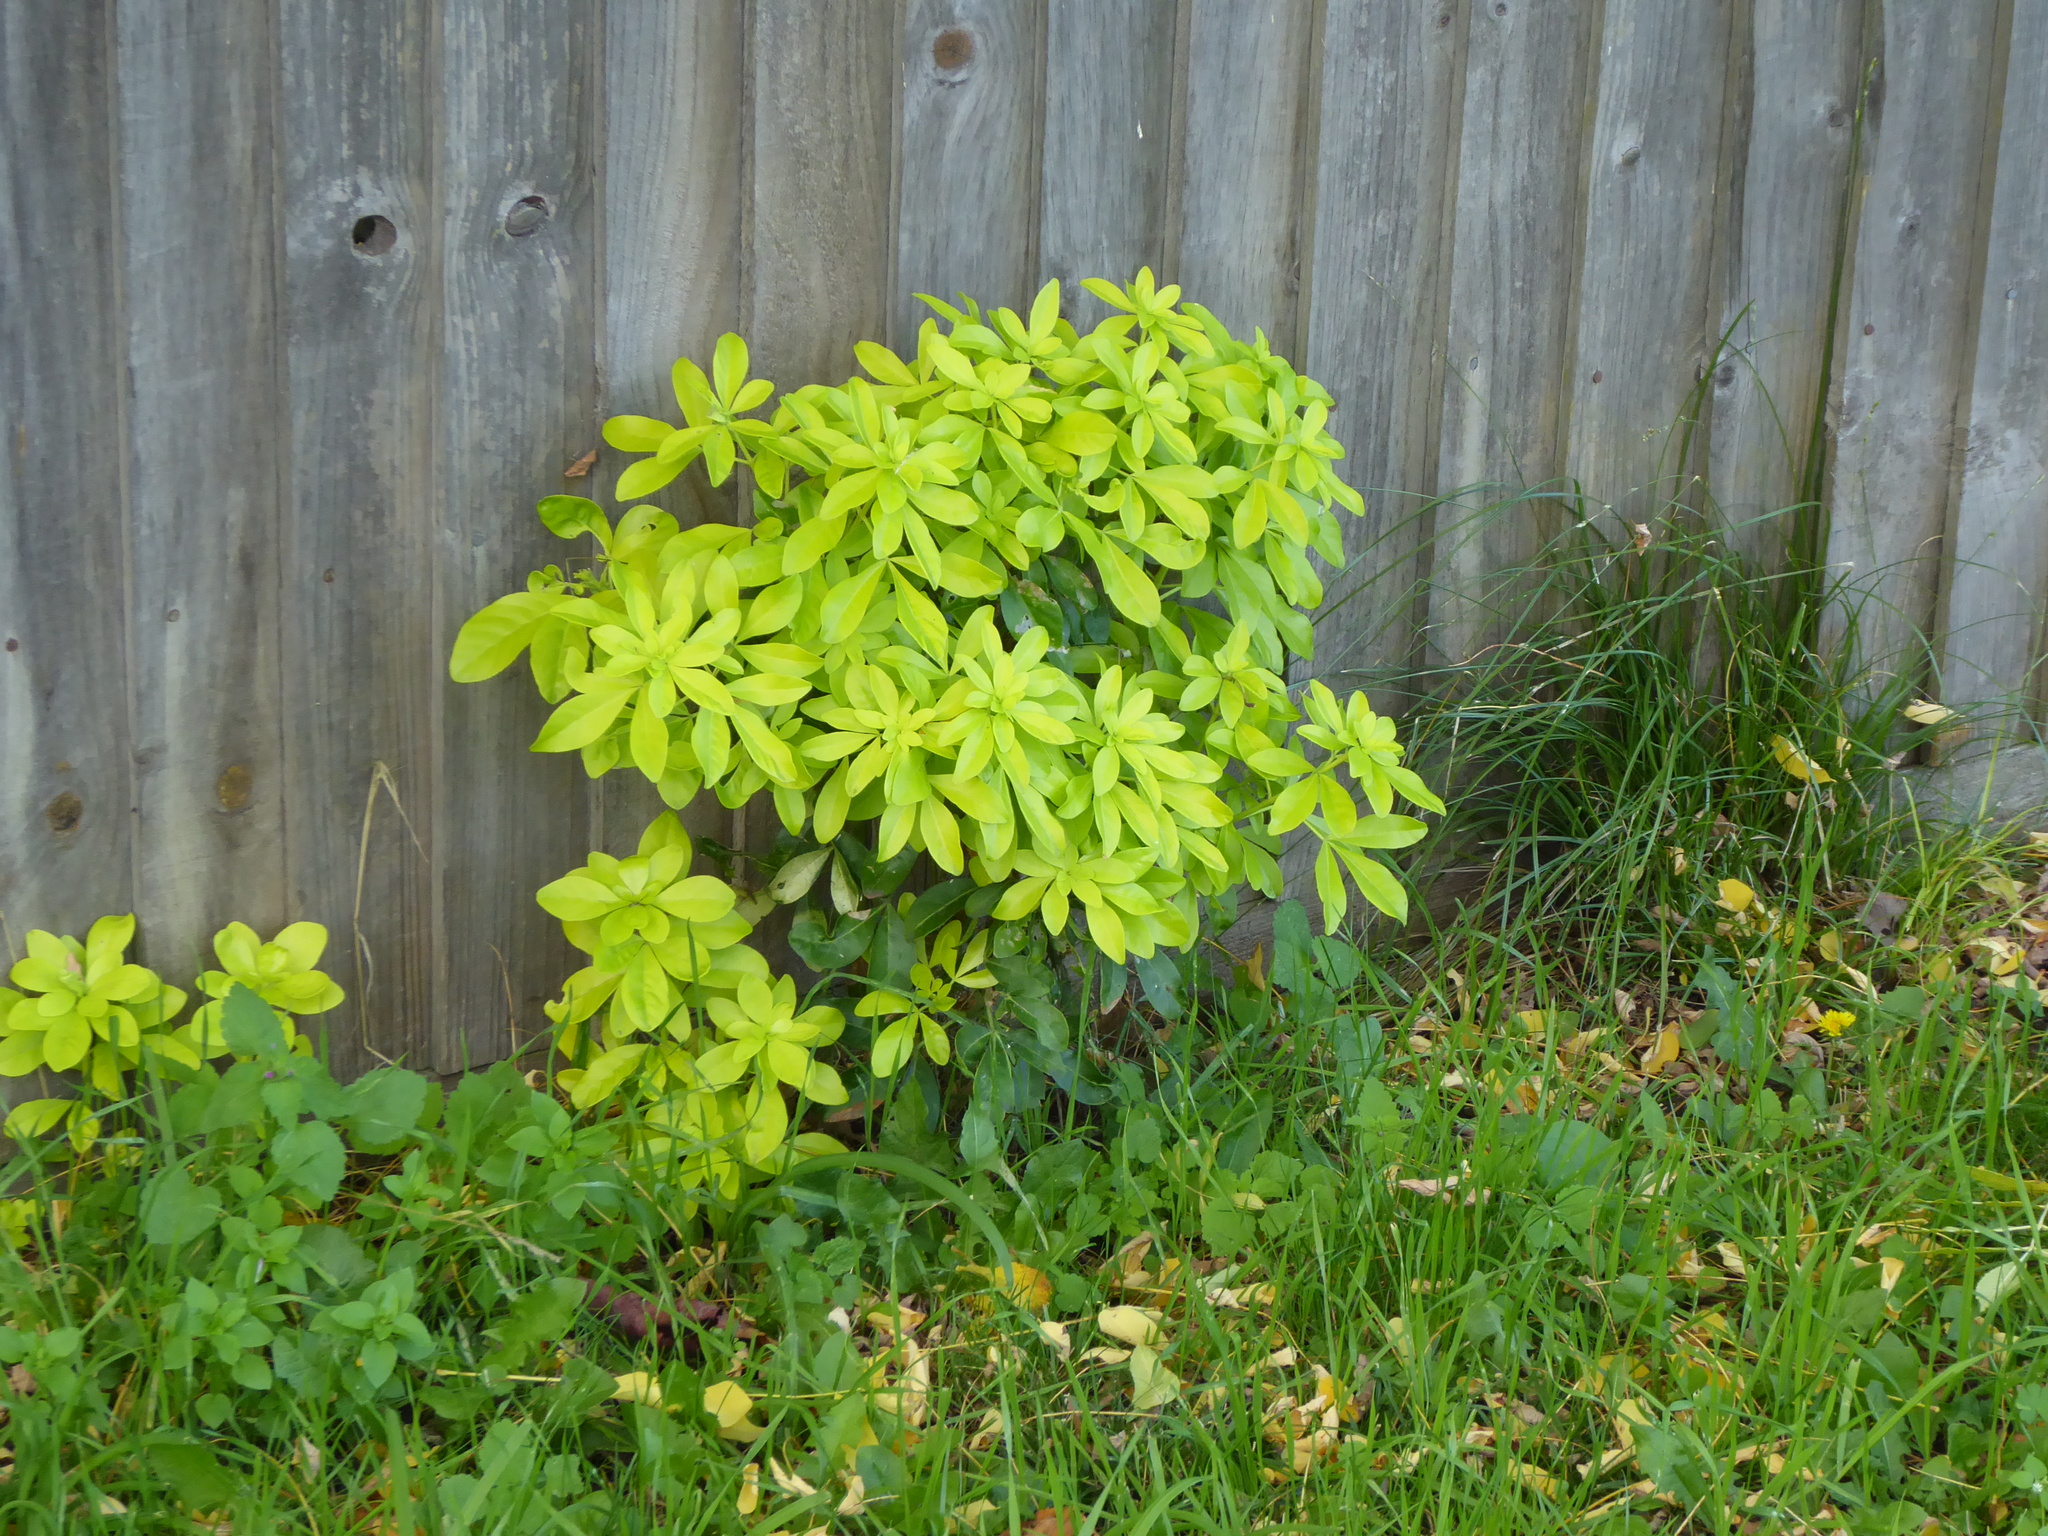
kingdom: Plantae
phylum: Tracheophyta
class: Magnoliopsida
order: Sapindales
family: Rutaceae
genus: Choisya
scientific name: Choisya ternata
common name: Mexican orange
